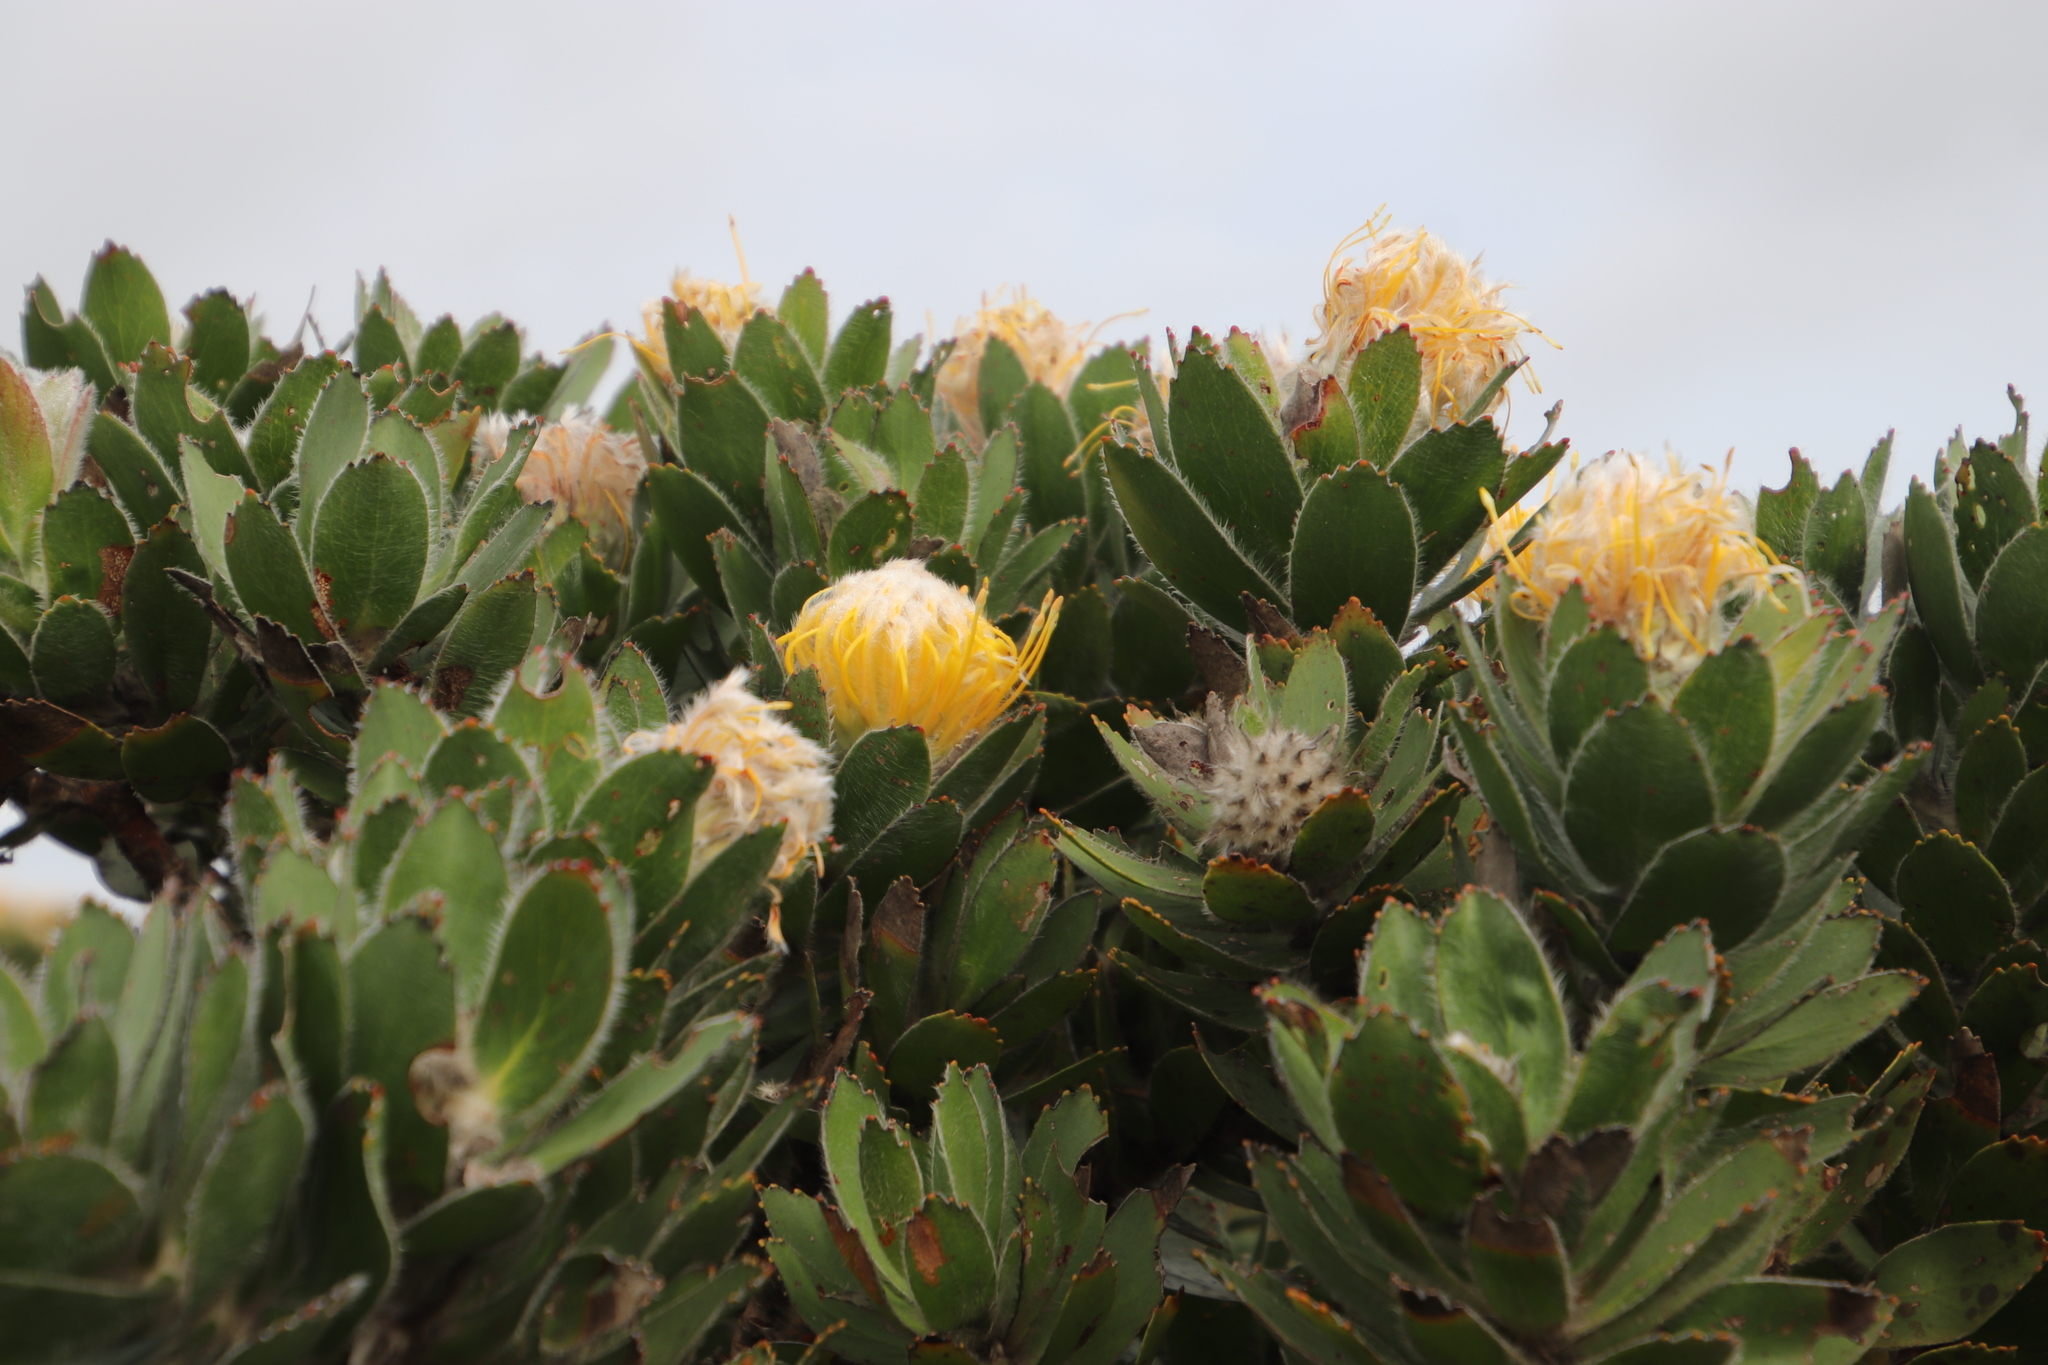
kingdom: Plantae
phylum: Tracheophyta
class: Magnoliopsida
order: Proteales
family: Proteaceae
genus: Leucospermum
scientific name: Leucospermum conocarpodendron
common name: Tree pincushion
